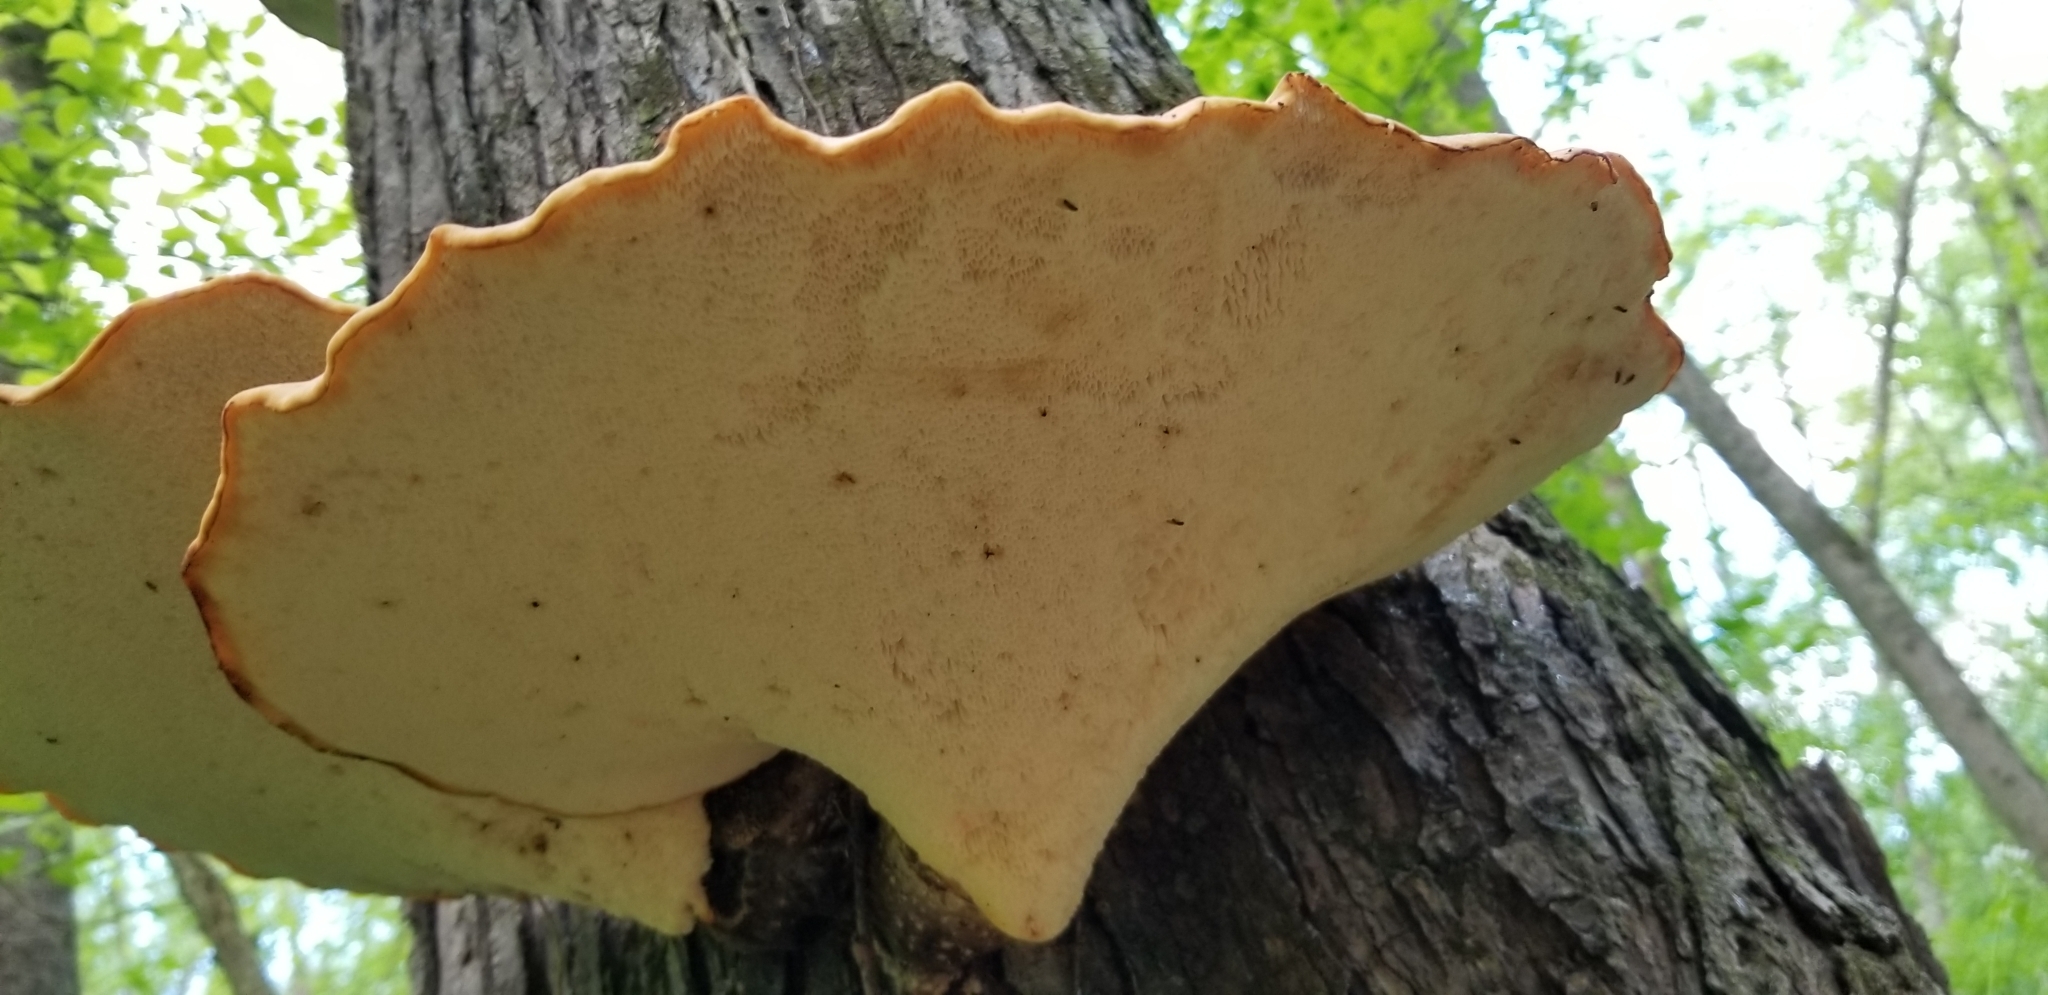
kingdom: Fungi
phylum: Basidiomycota
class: Agaricomycetes
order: Polyporales
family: Polyporaceae
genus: Cerioporus
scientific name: Cerioporus squamosus
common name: Dryad's saddle
